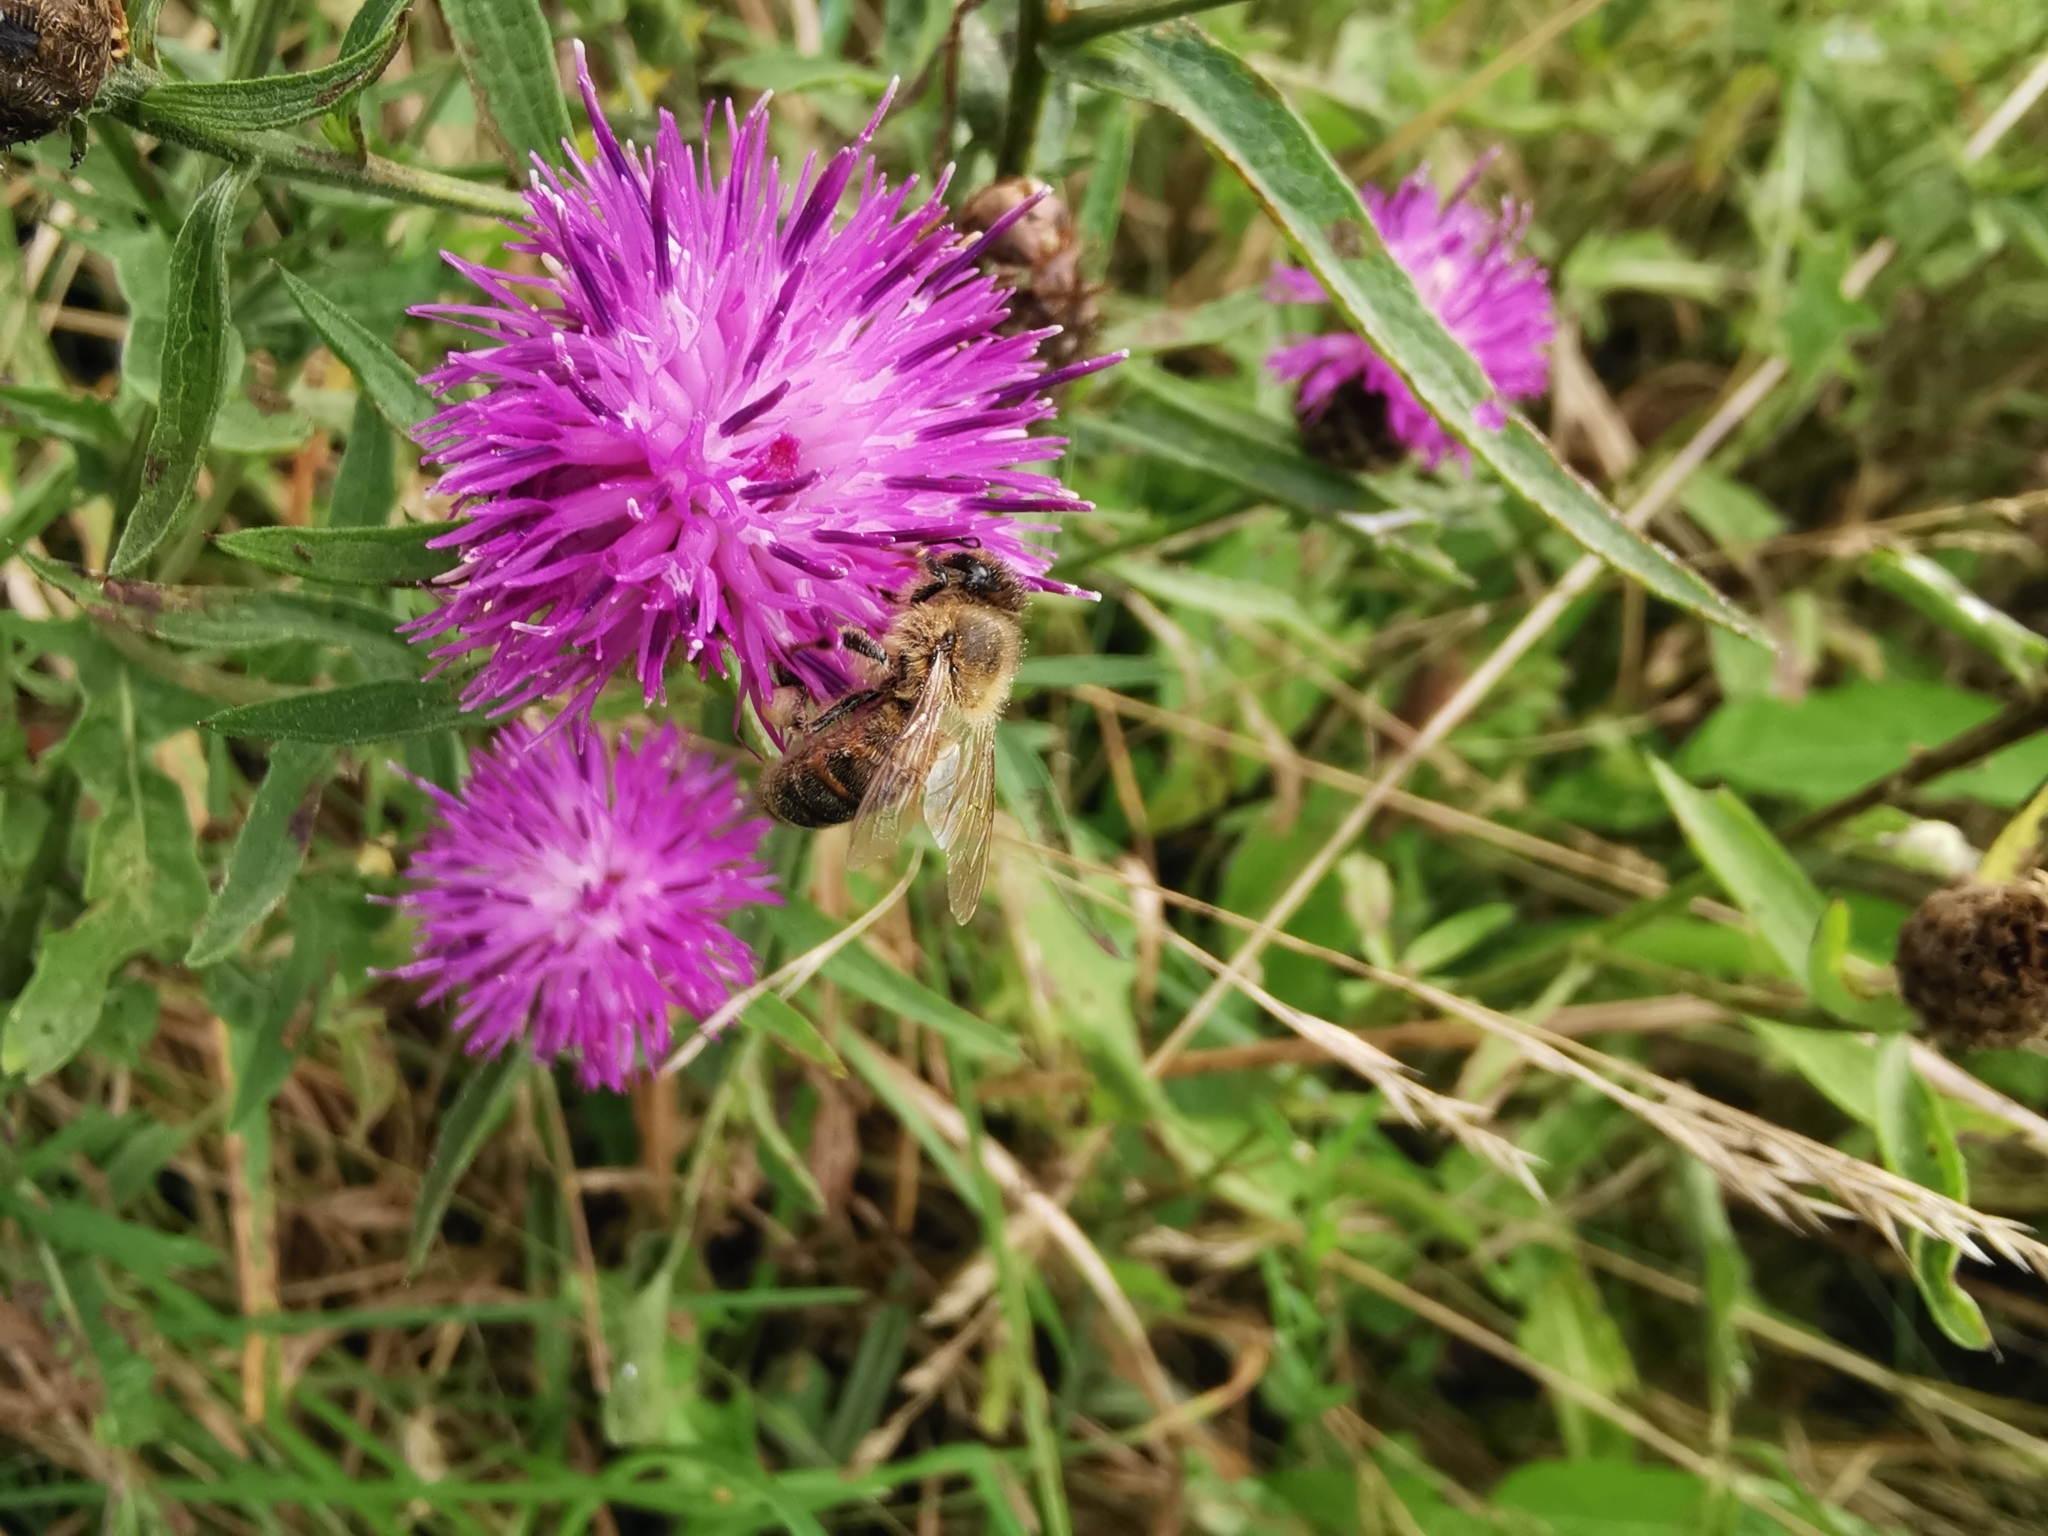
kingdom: Animalia
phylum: Arthropoda
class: Insecta
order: Hymenoptera
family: Apidae
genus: Apis
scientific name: Apis mellifera
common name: Honey bee
